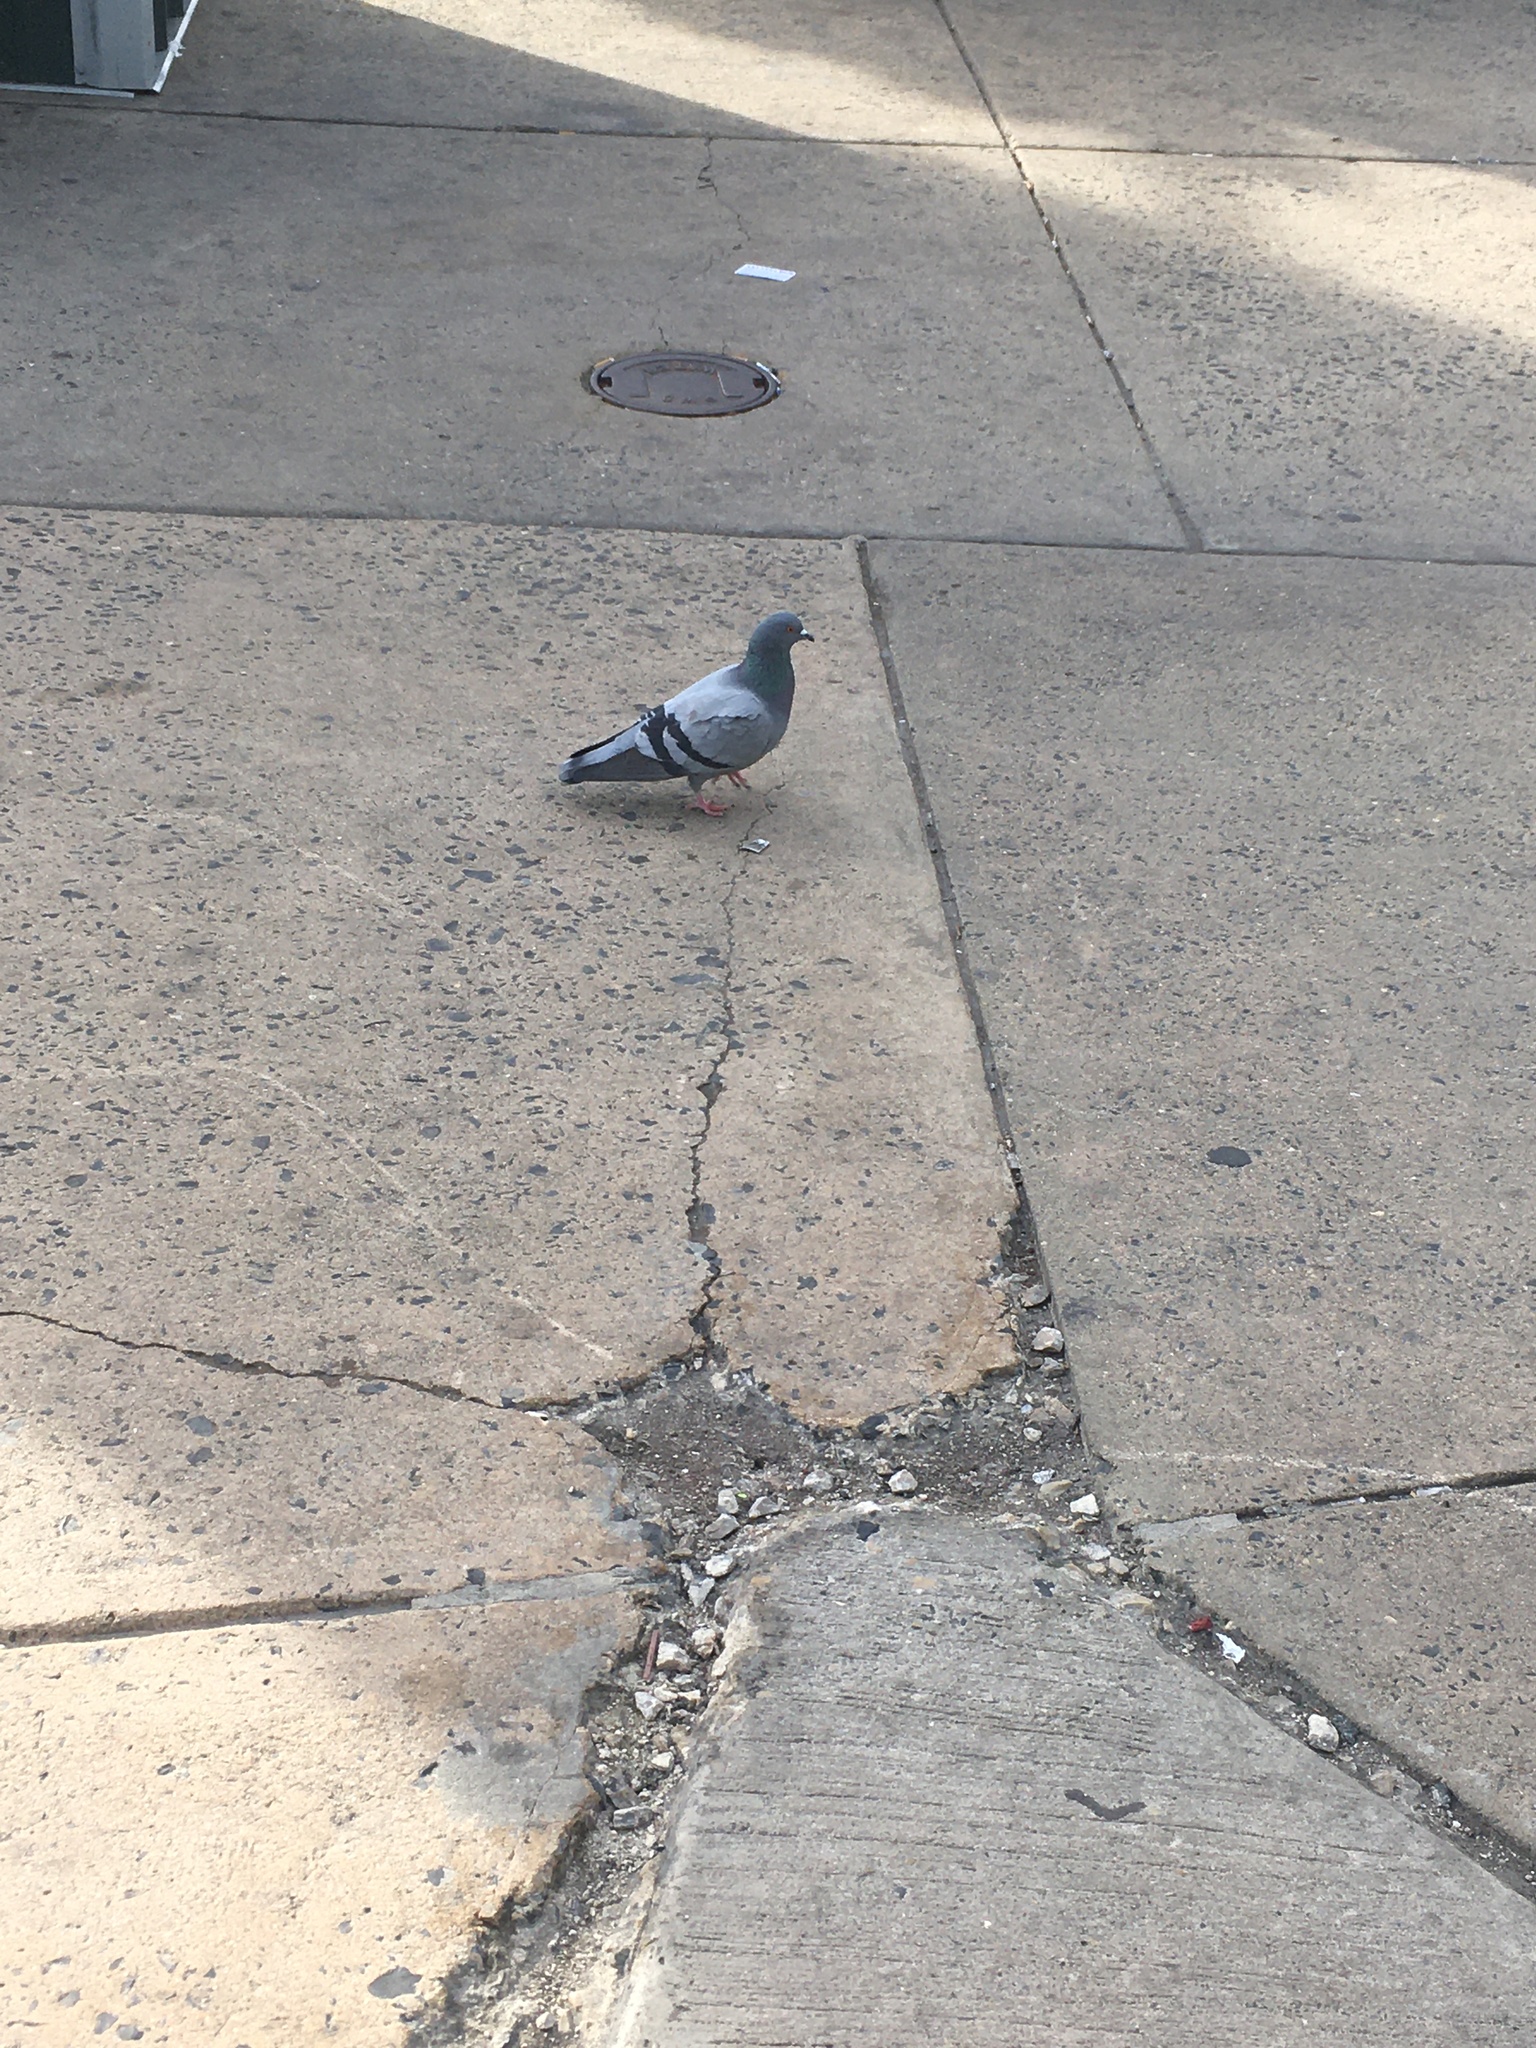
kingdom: Animalia
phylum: Chordata
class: Aves
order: Columbiformes
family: Columbidae
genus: Columba
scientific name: Columba livia
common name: Rock pigeon
